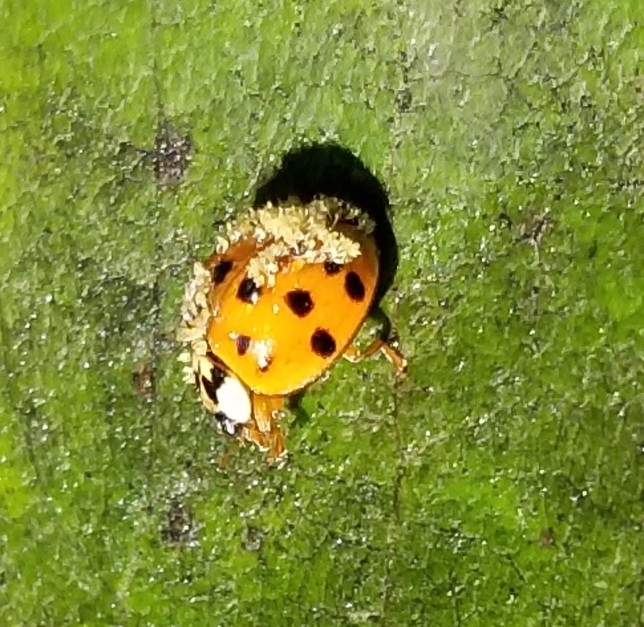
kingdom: Fungi
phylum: Ascomycota
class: Laboulbeniomycetes
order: Laboulbeniales
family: Laboulbeniaceae
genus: Hesperomyces
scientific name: Hesperomyces harmoniae
